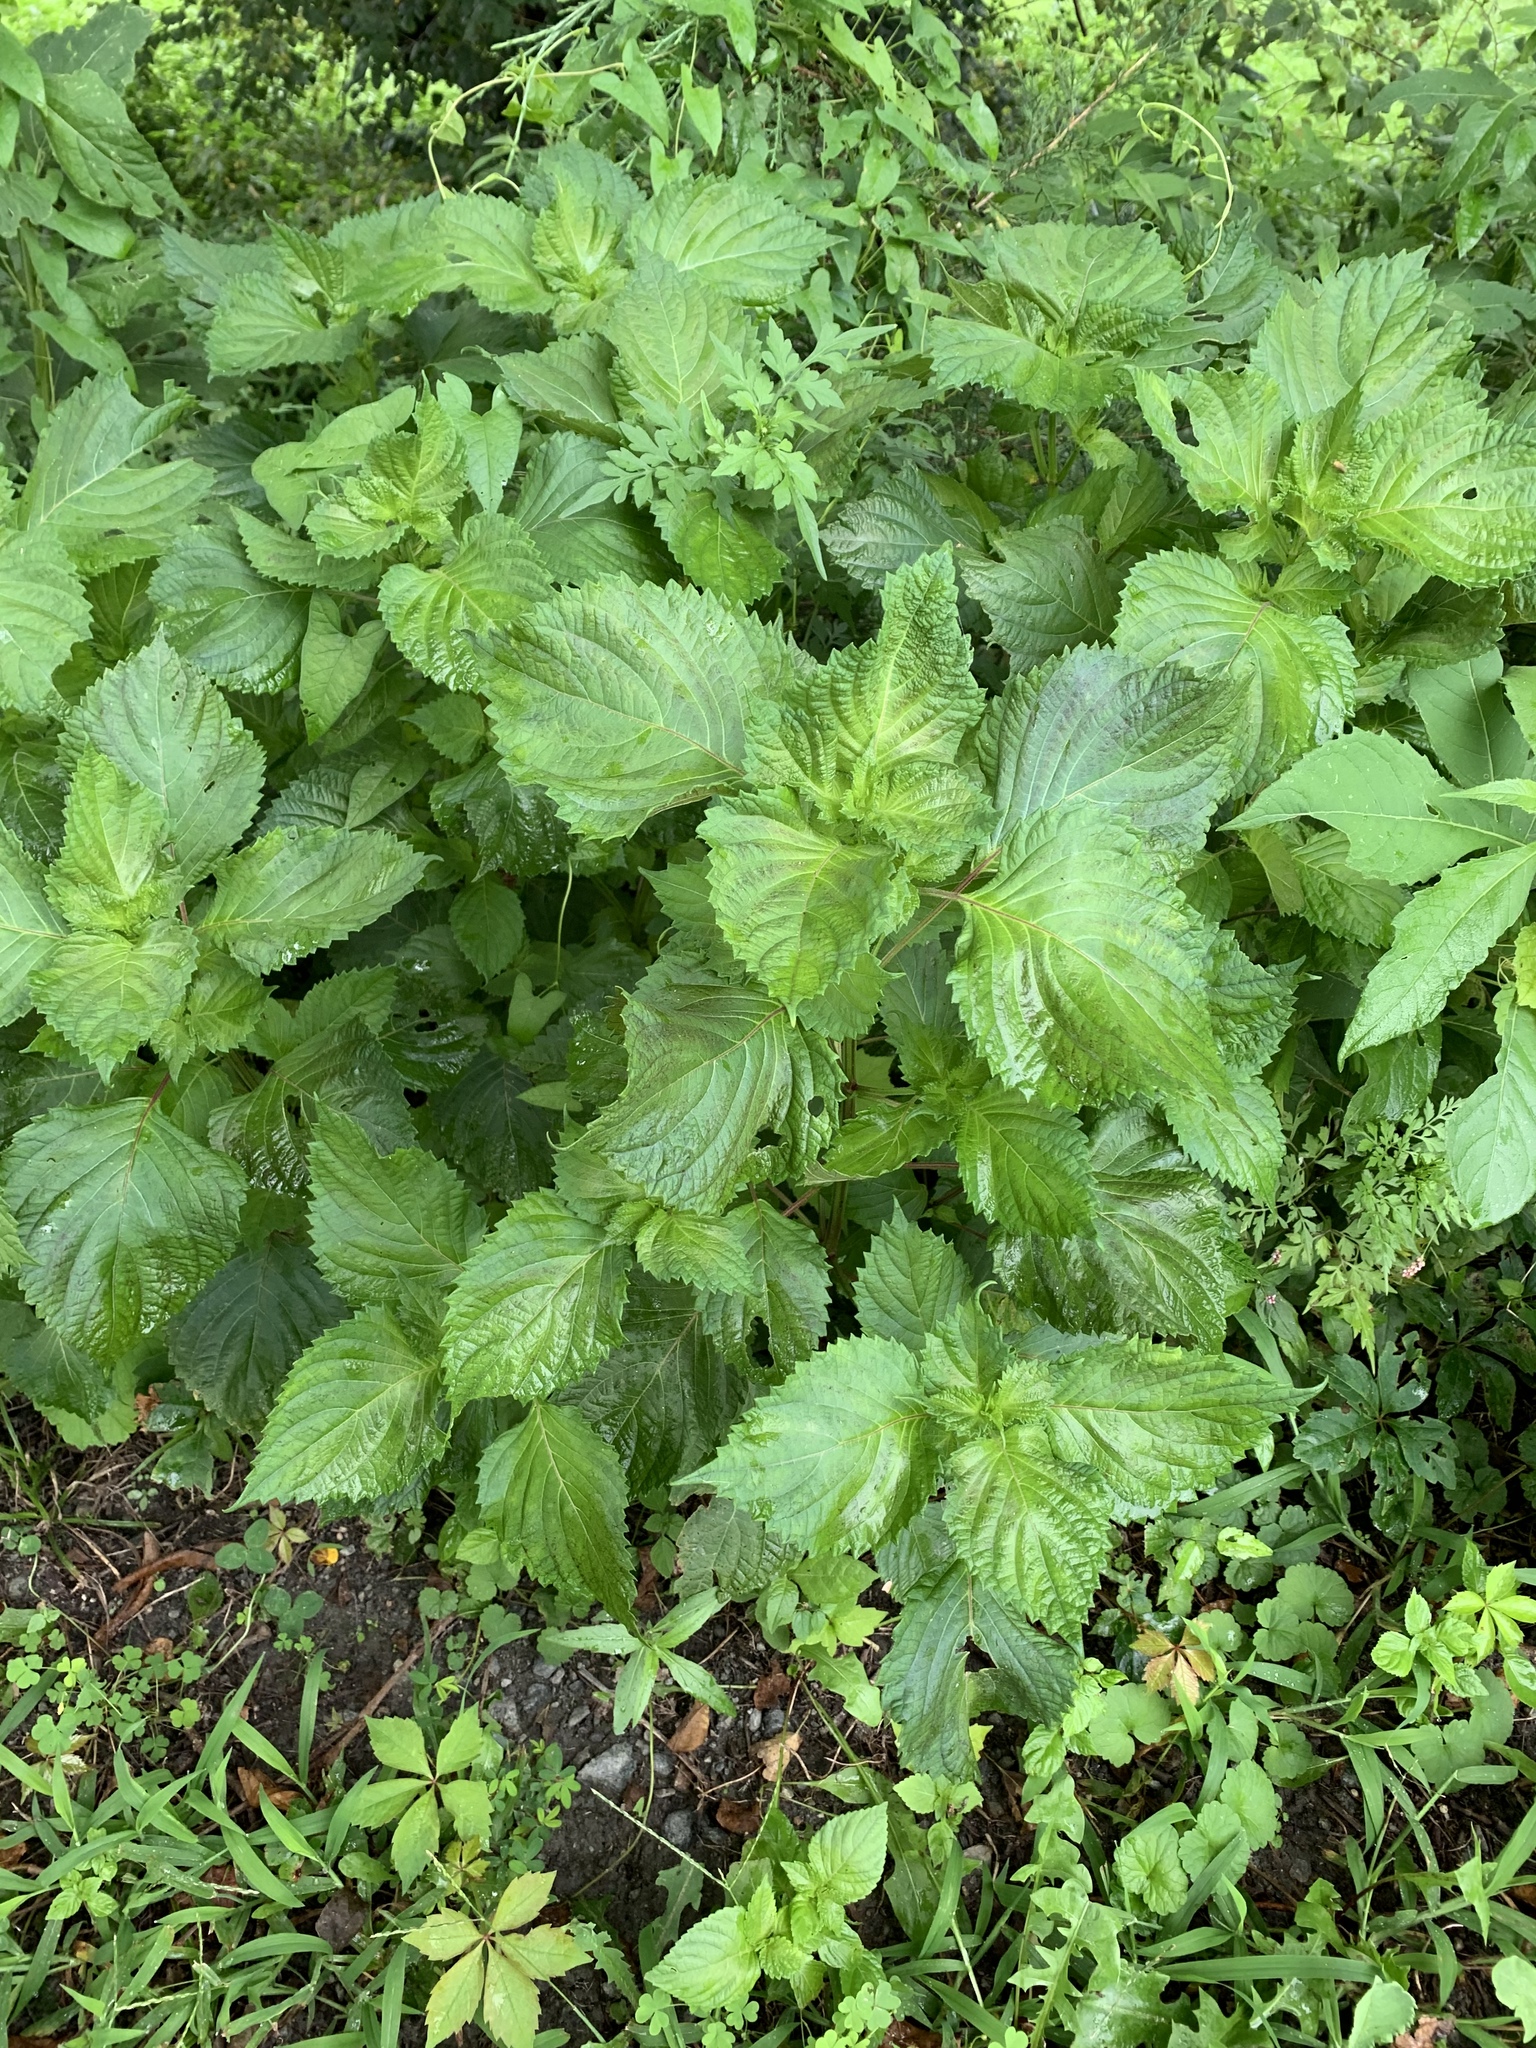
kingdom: Plantae
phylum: Tracheophyta
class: Magnoliopsida
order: Lamiales
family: Lamiaceae
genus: Perilla
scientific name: Perilla frutescens
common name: Perilla
